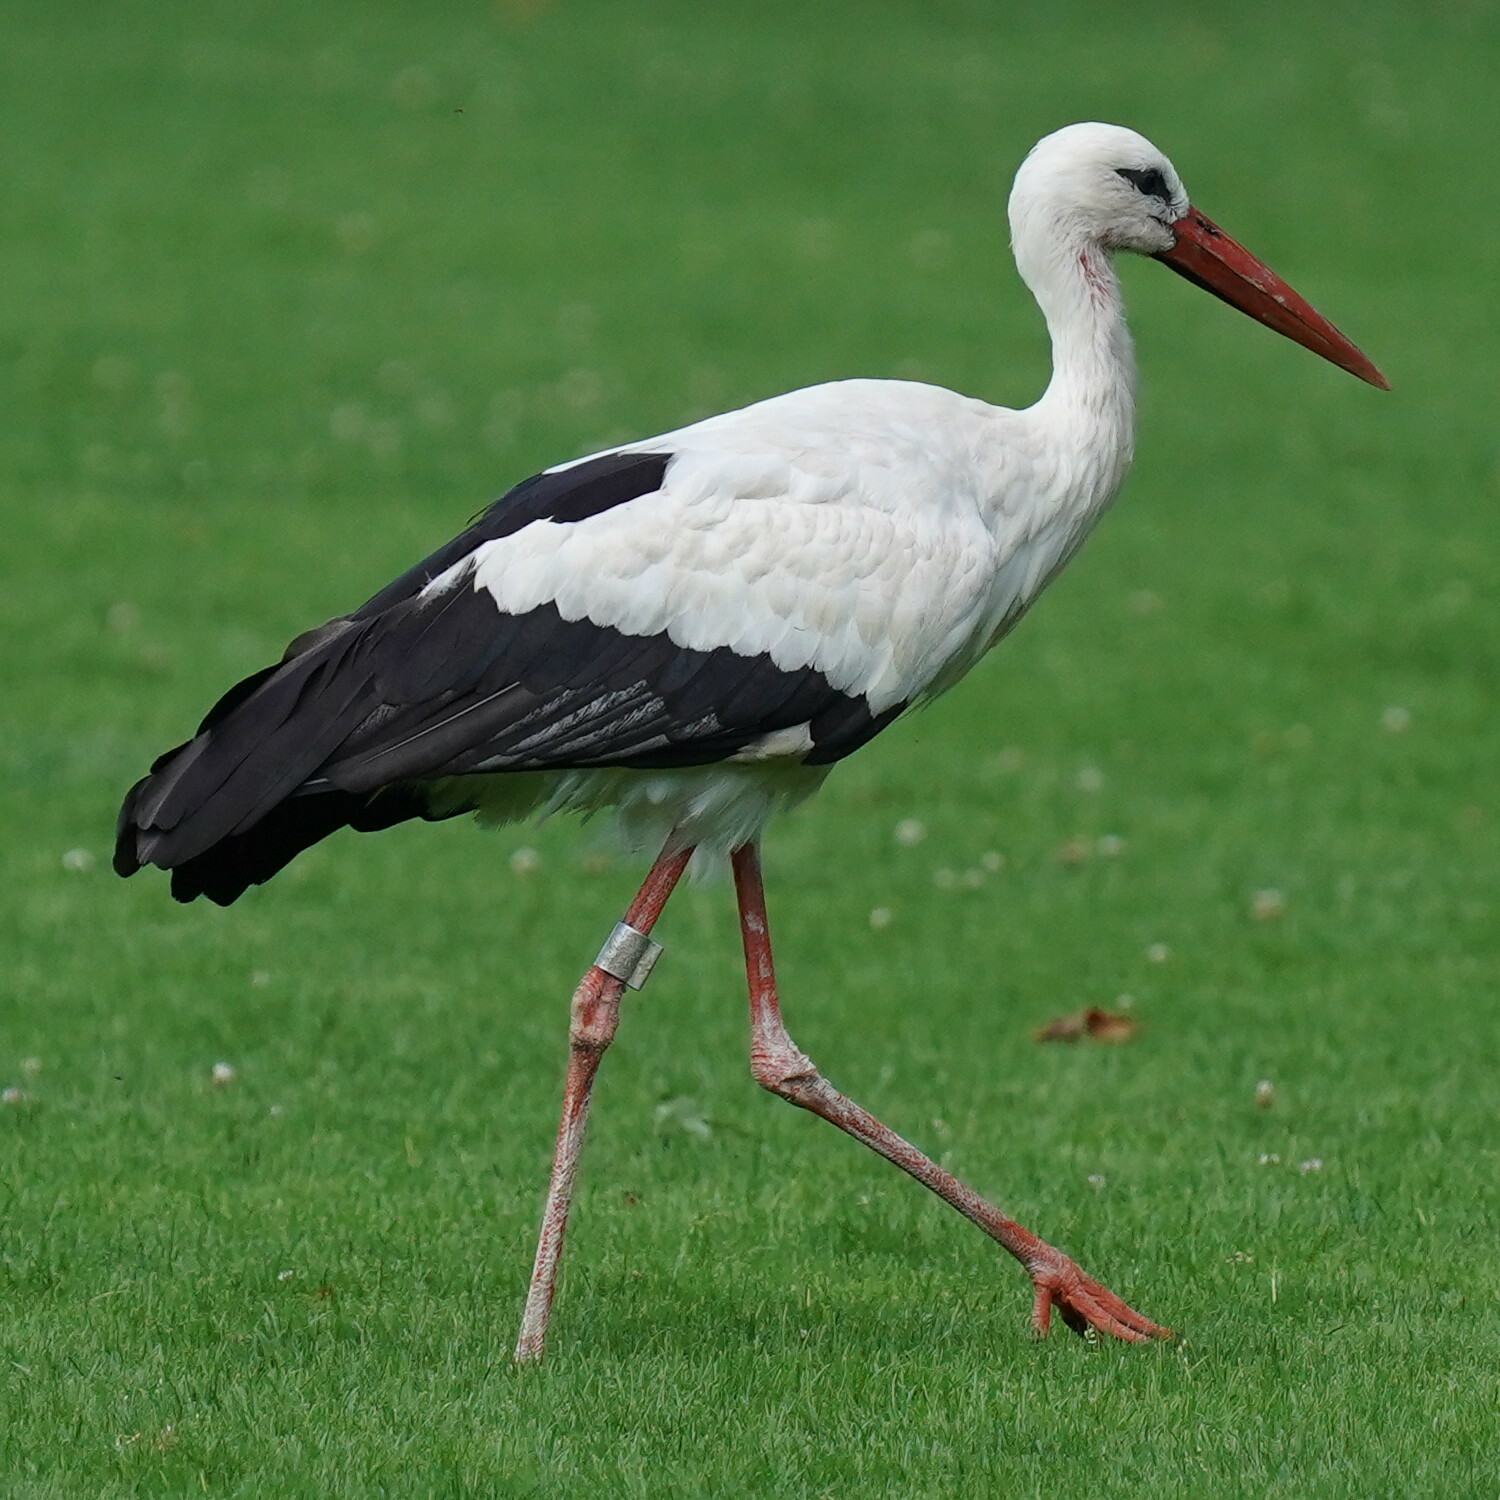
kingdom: Animalia
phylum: Chordata
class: Aves
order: Ciconiiformes
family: Ciconiidae
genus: Ciconia
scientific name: Ciconia ciconia
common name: White stork
